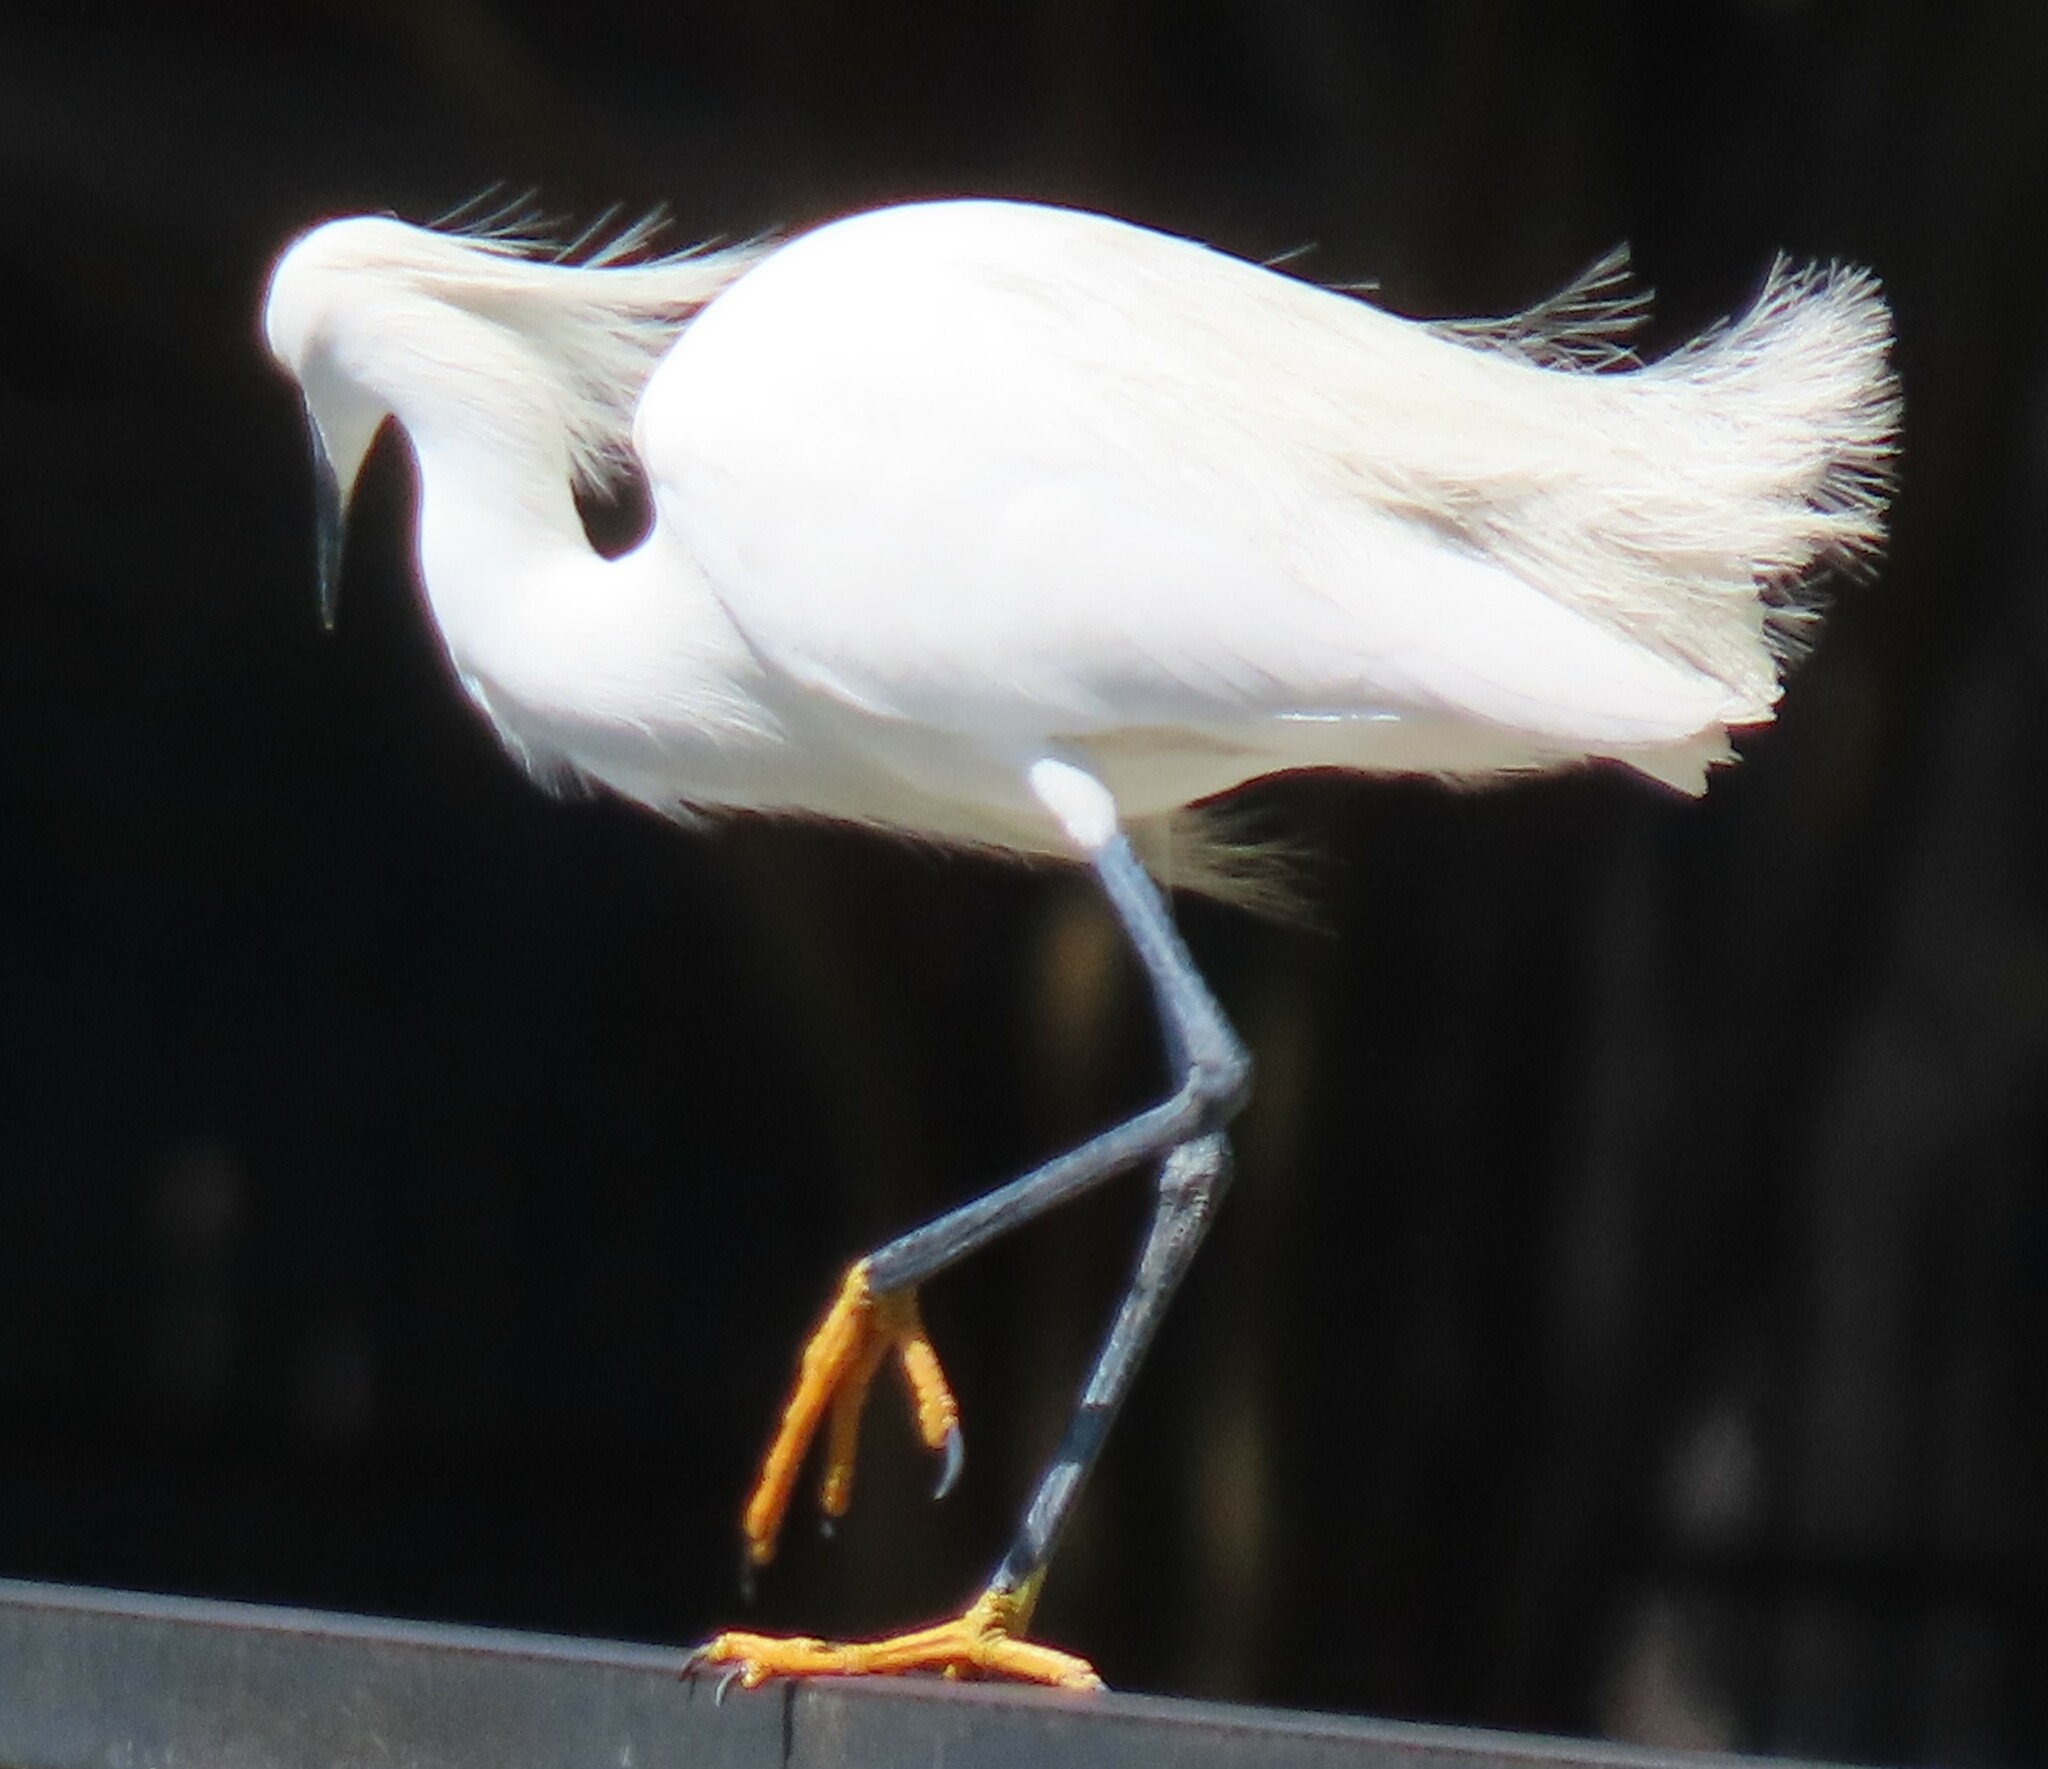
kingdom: Animalia
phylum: Chordata
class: Aves
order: Pelecaniformes
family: Ardeidae
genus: Egretta
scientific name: Egretta thula
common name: Snowy egret
